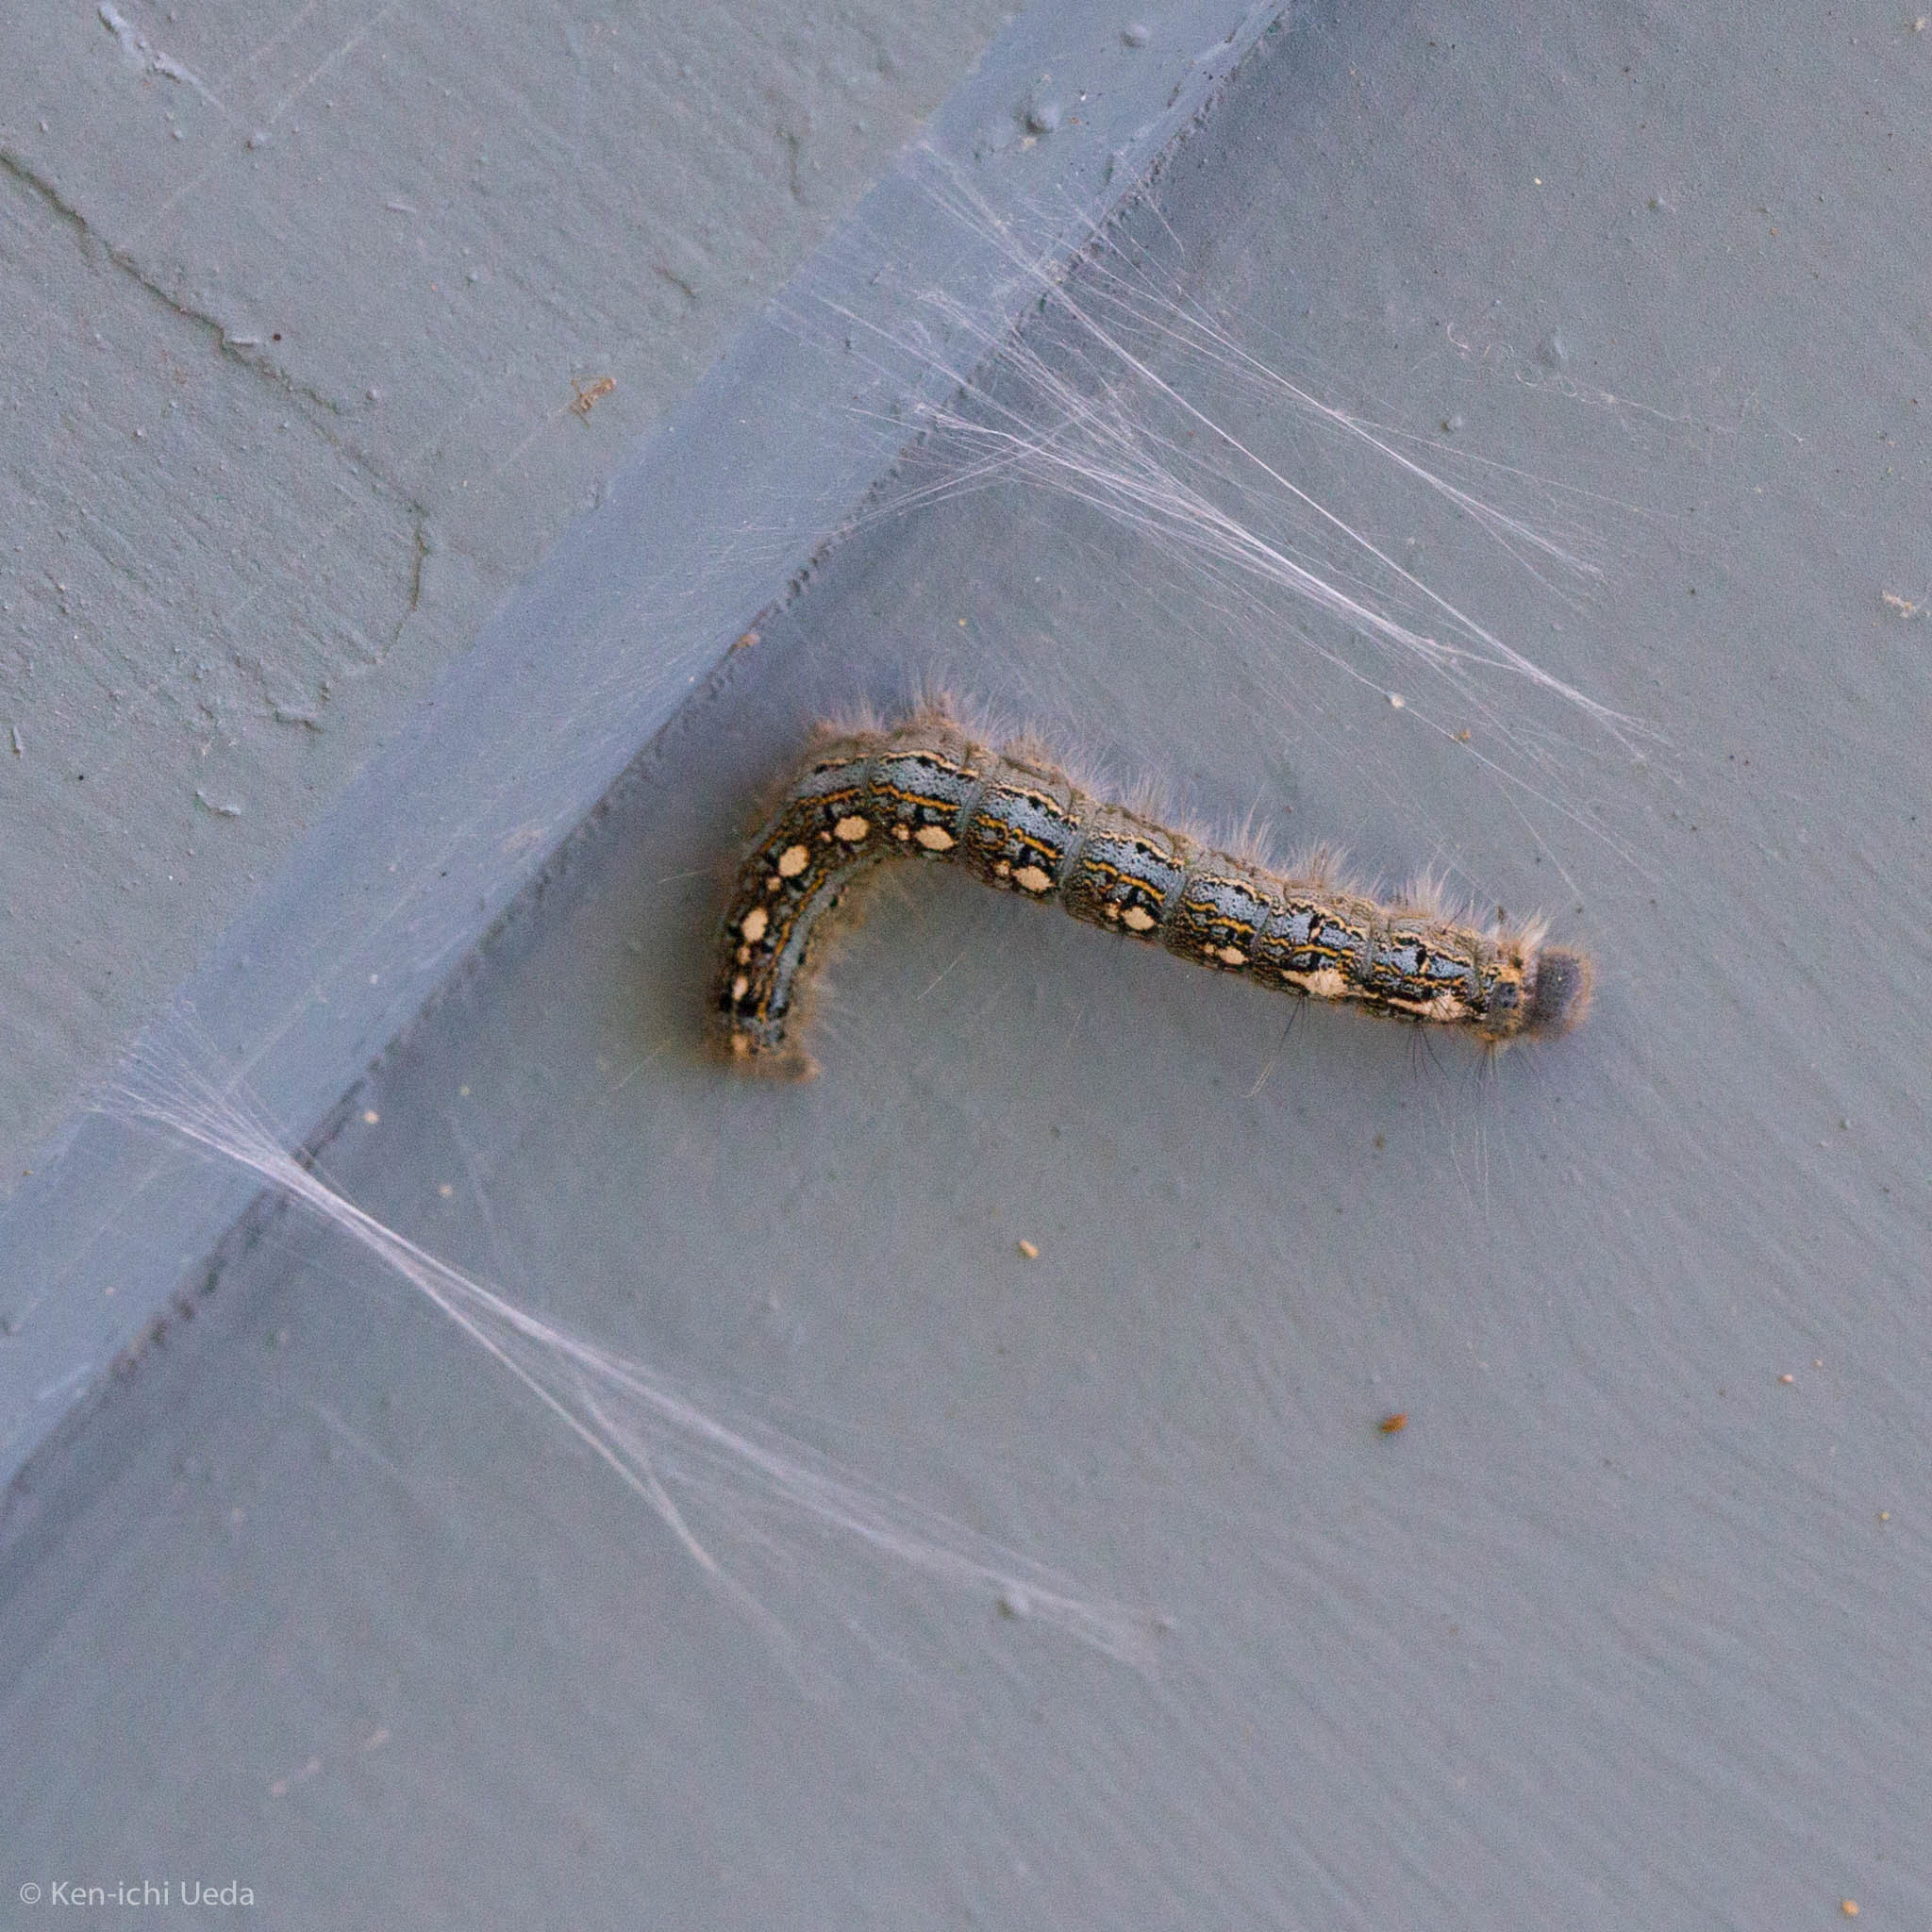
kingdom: Animalia
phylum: Arthropoda
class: Insecta
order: Lepidoptera
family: Lasiocampidae
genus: Malacosoma
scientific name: Malacosoma disstria
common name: Forest tent caterpillar
